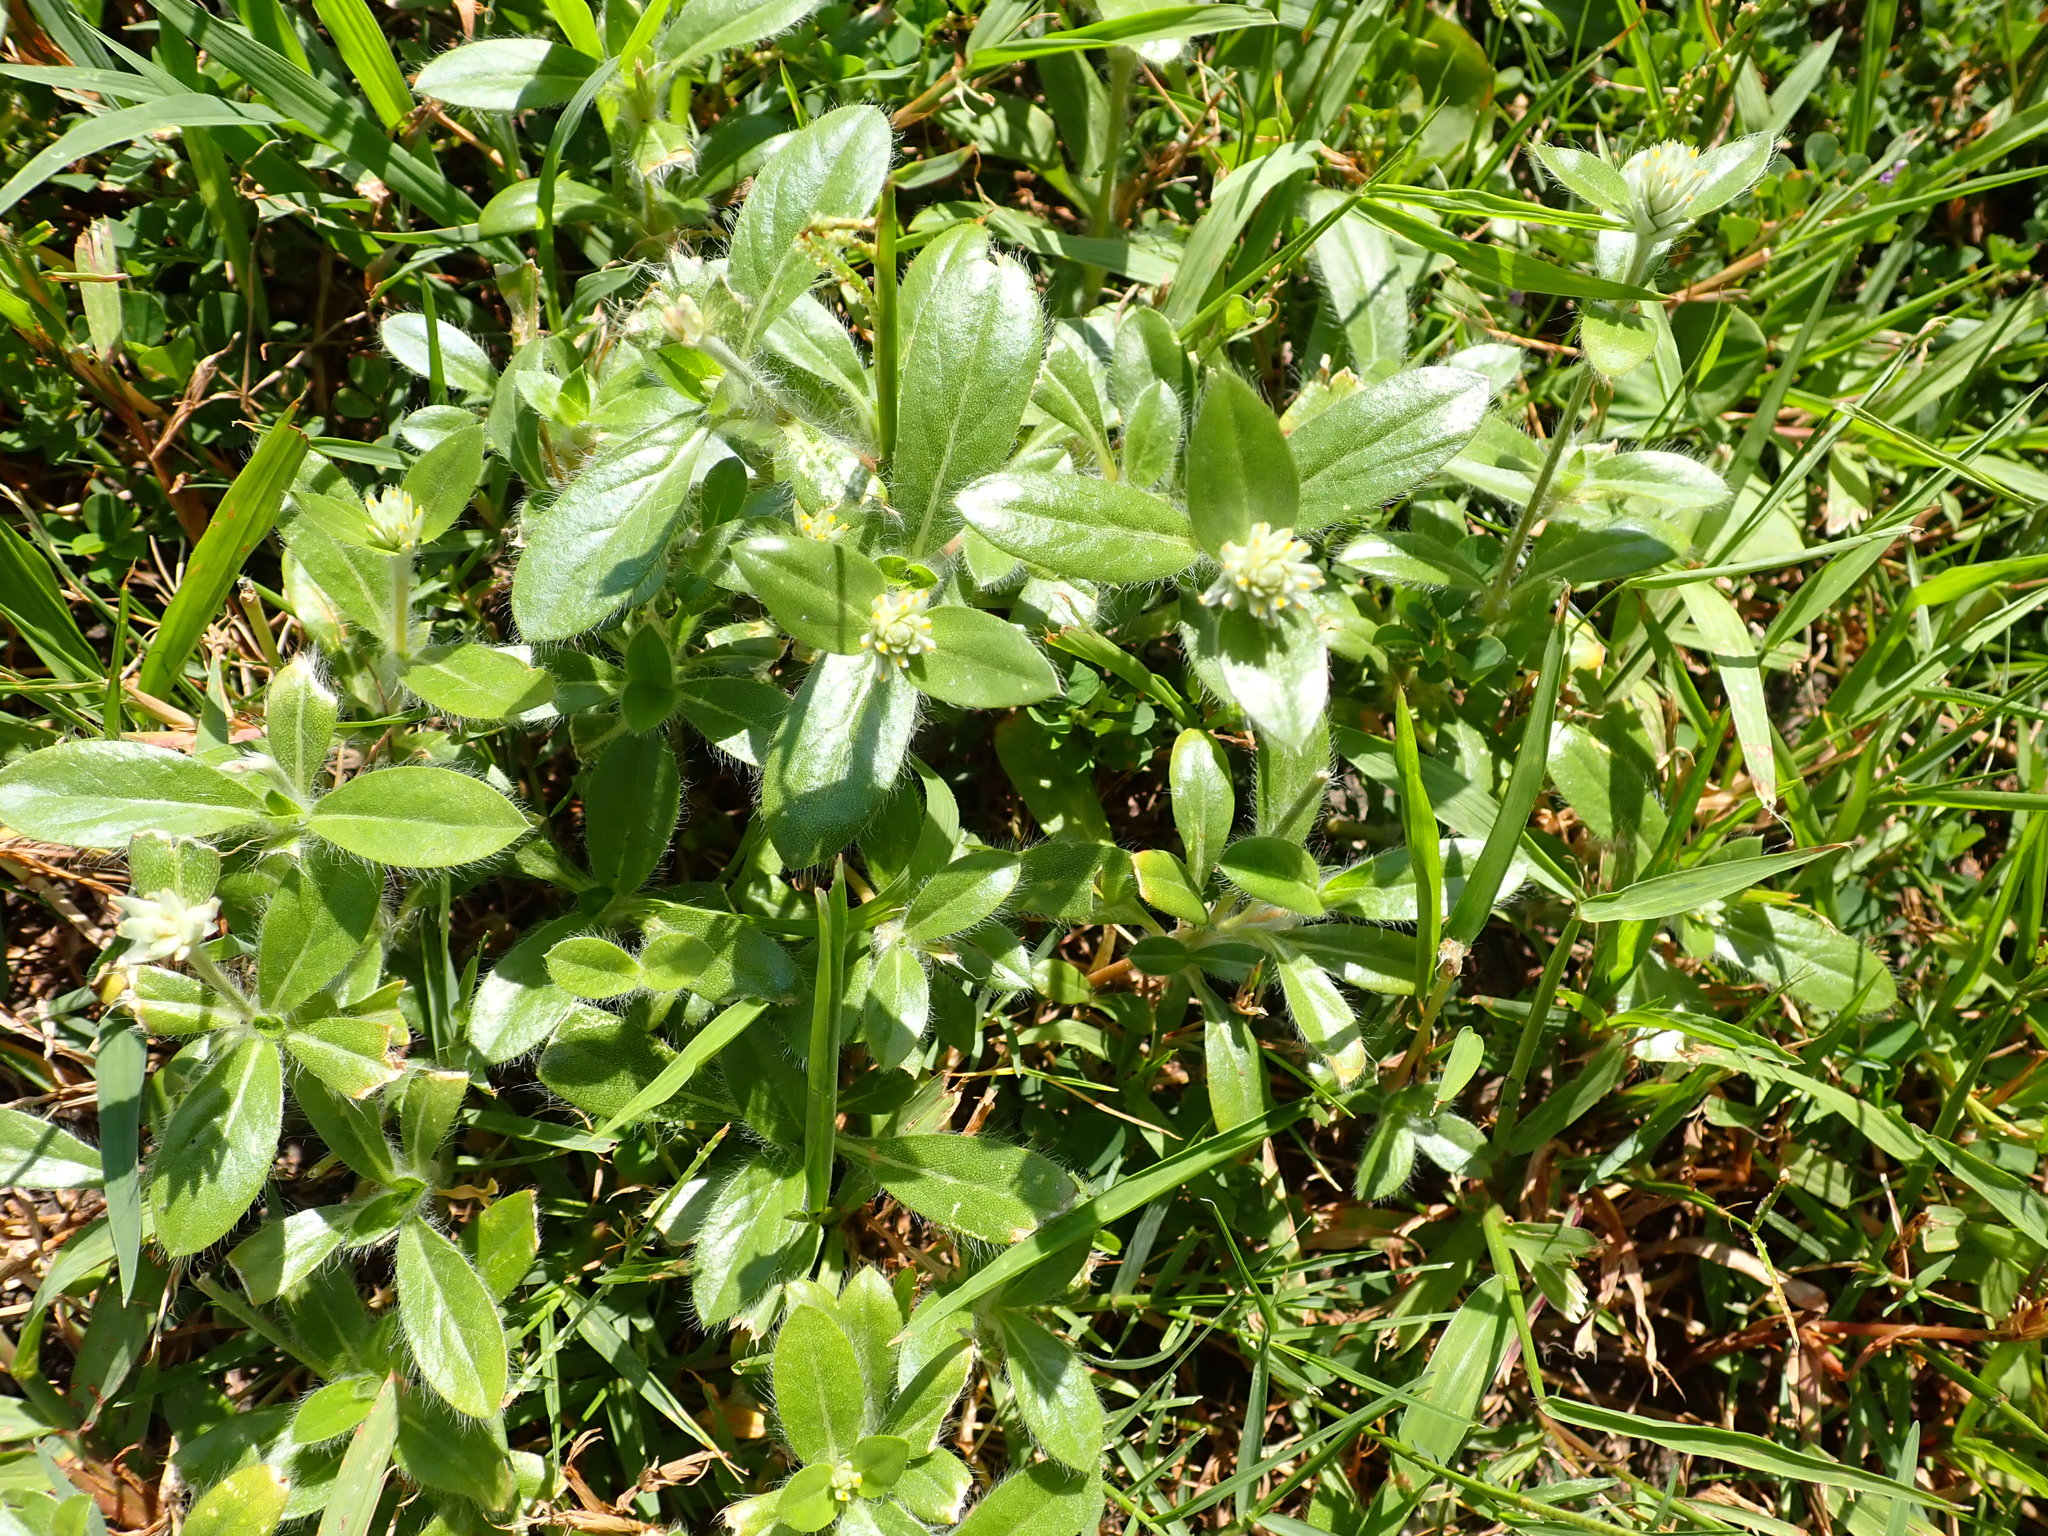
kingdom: Plantae
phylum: Tracheophyta
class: Magnoliopsida
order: Caryophyllales
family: Amaranthaceae
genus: Gomphrena
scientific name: Gomphrena celosioides
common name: Gomphrena-weed
